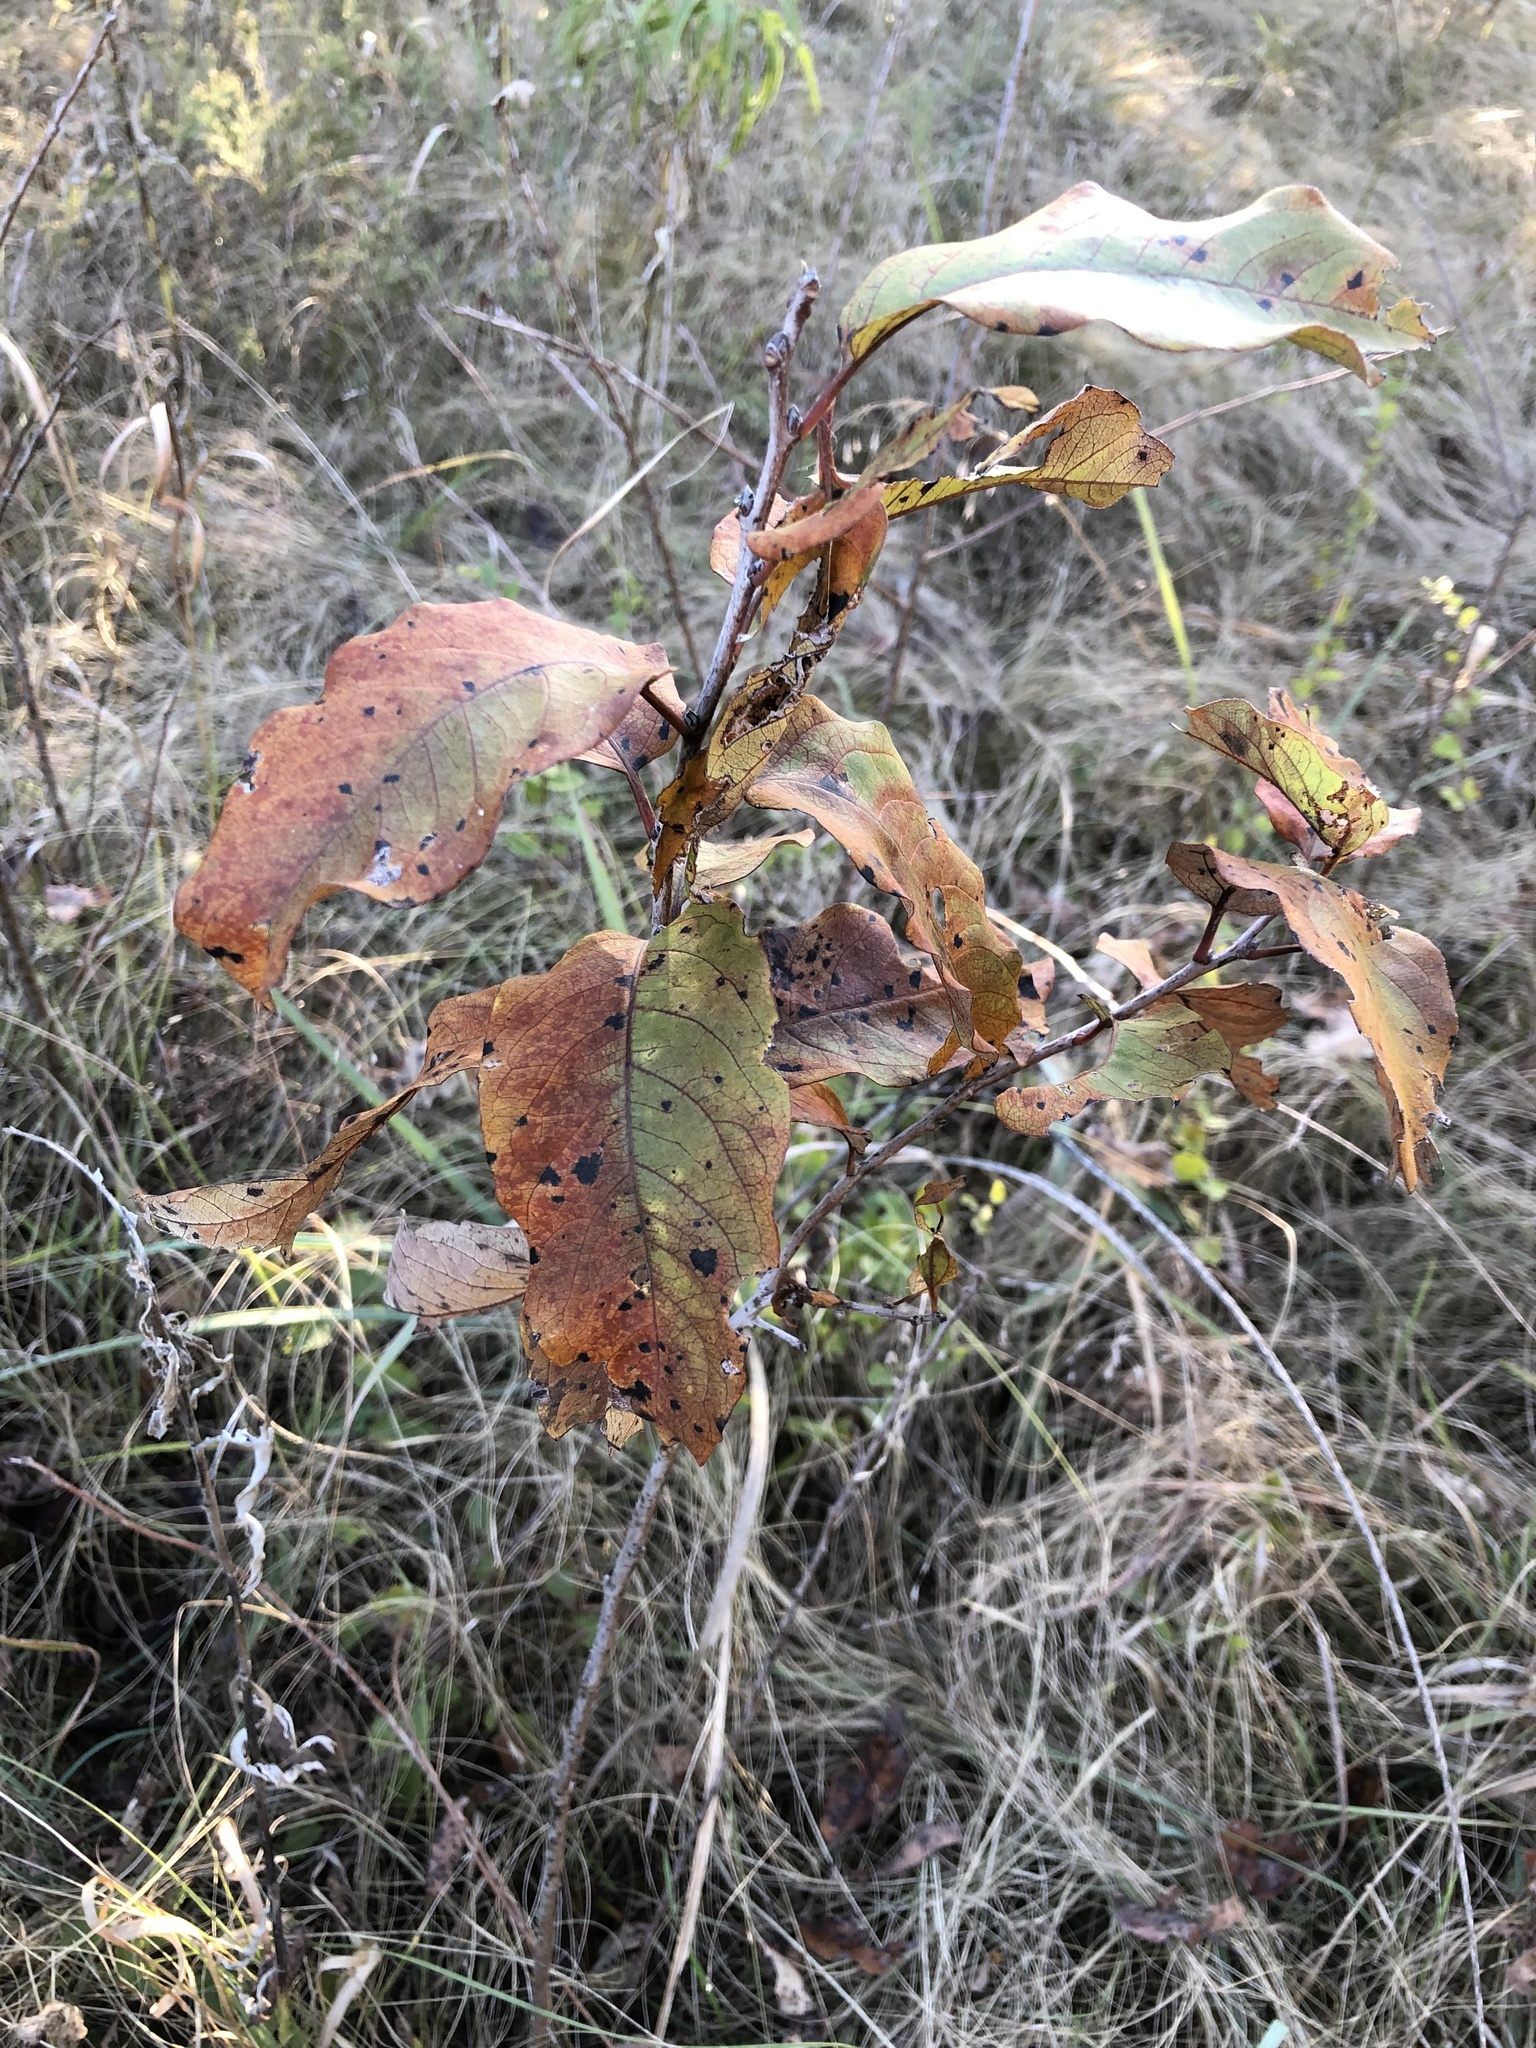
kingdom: Plantae
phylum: Tracheophyta
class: Magnoliopsida
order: Ericales
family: Ebenaceae
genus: Diospyros
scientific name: Diospyros virginiana
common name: Persimmon
